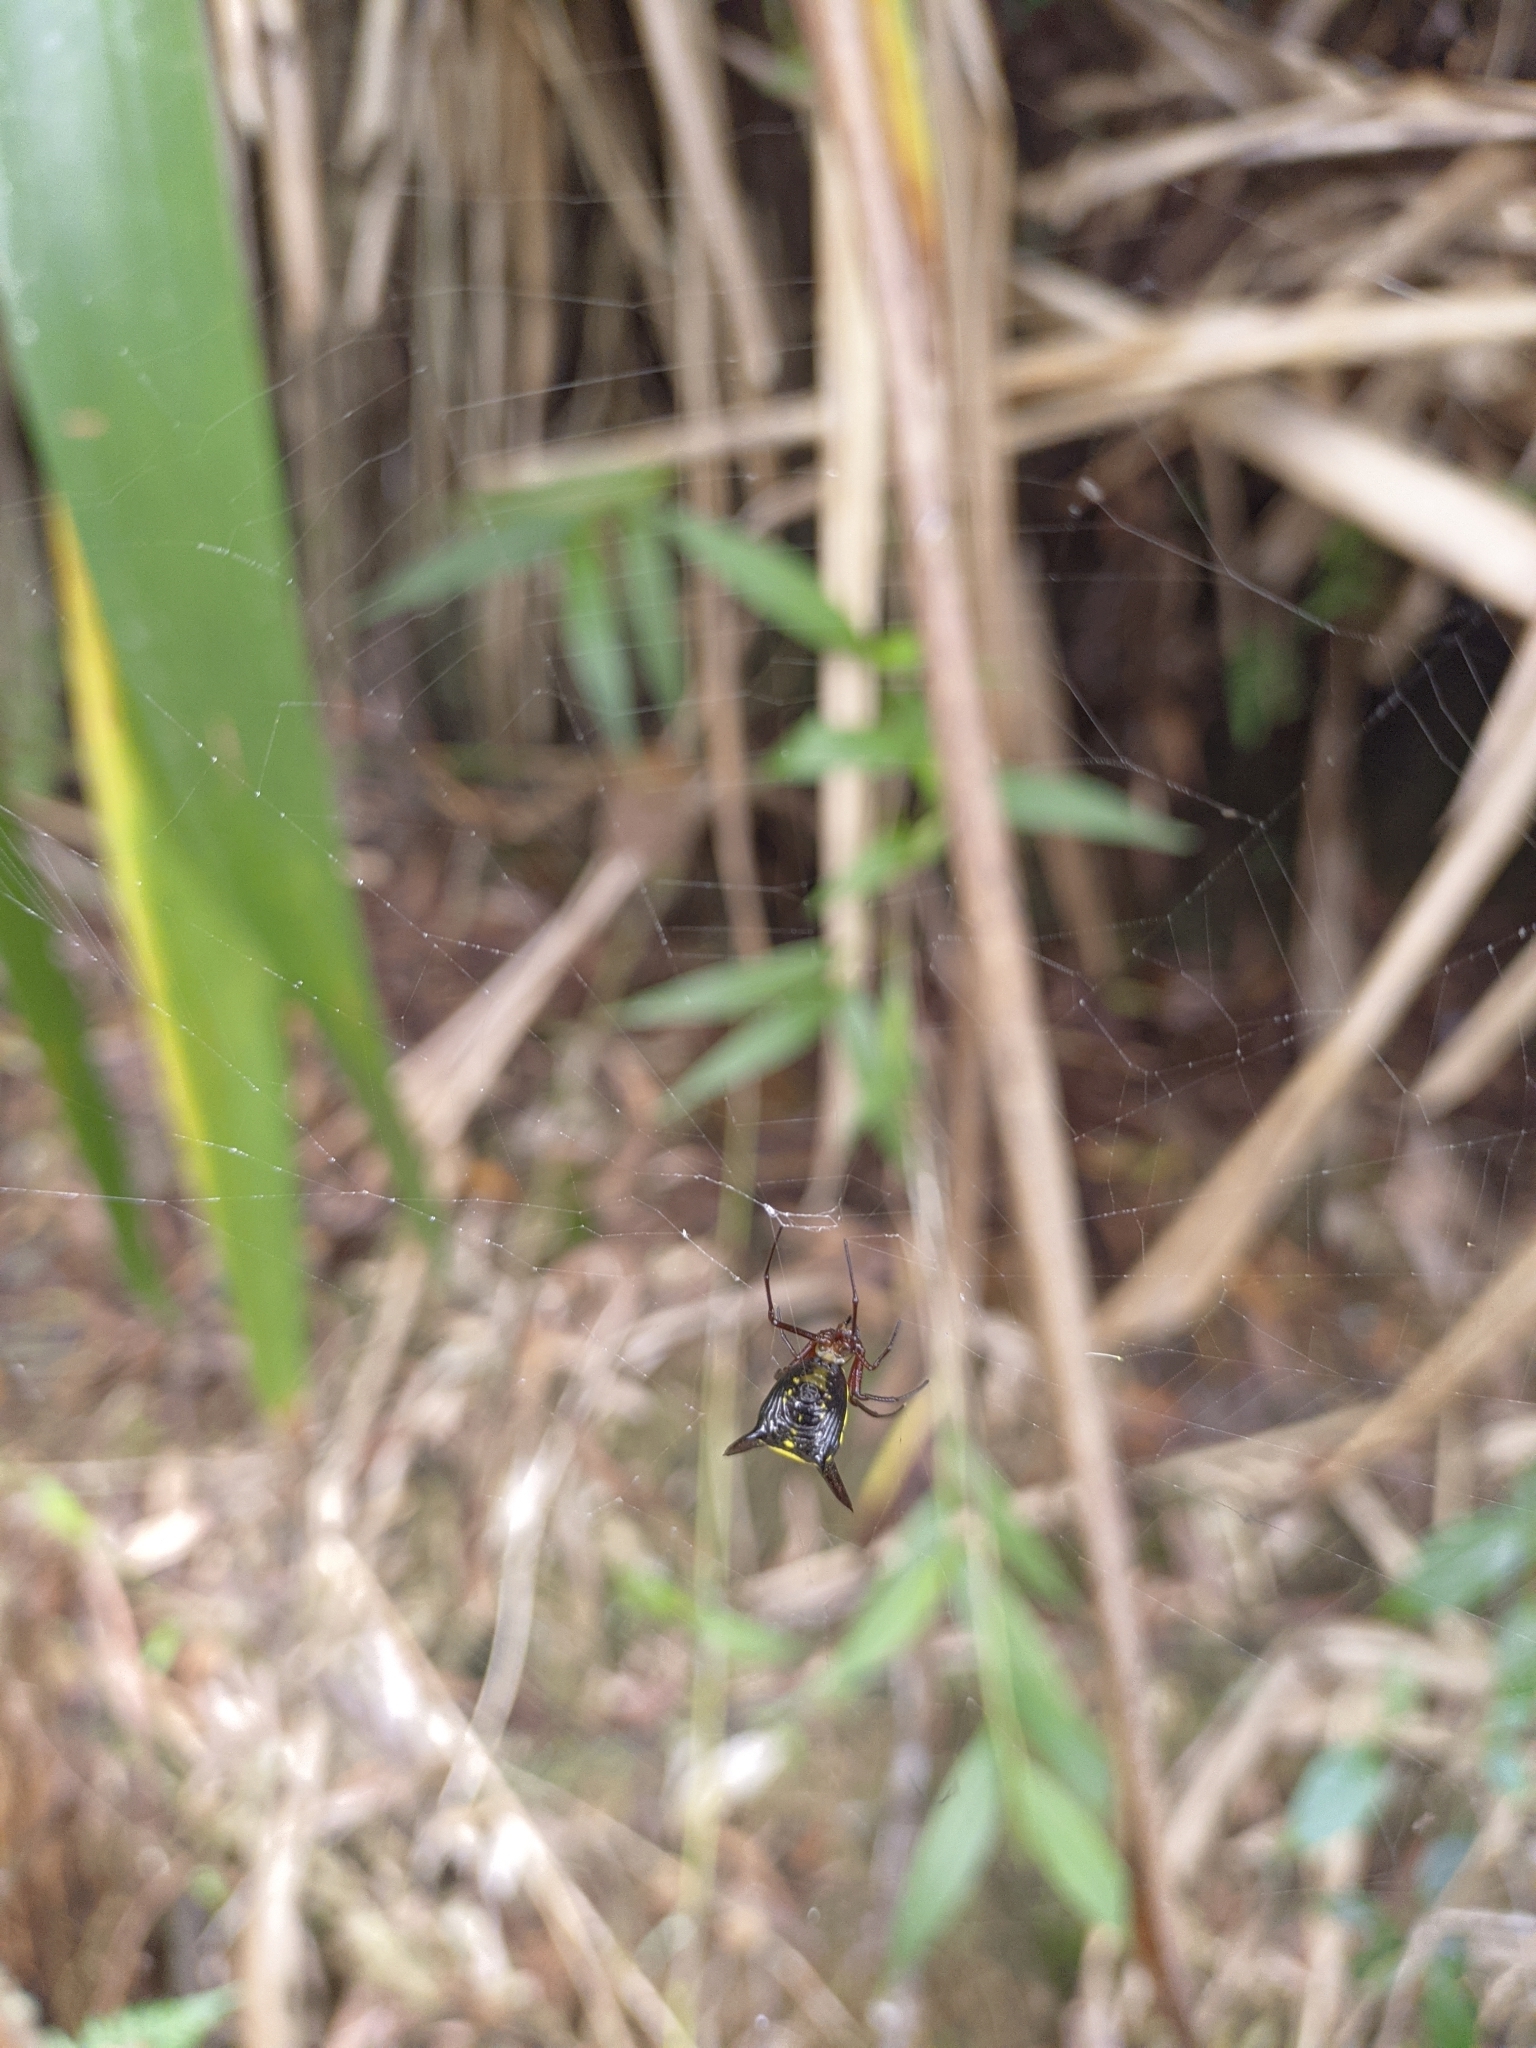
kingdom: Animalia
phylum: Arthropoda
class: Arachnida
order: Araneae
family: Araneidae
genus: Micrathena
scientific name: Micrathena kochalkai
